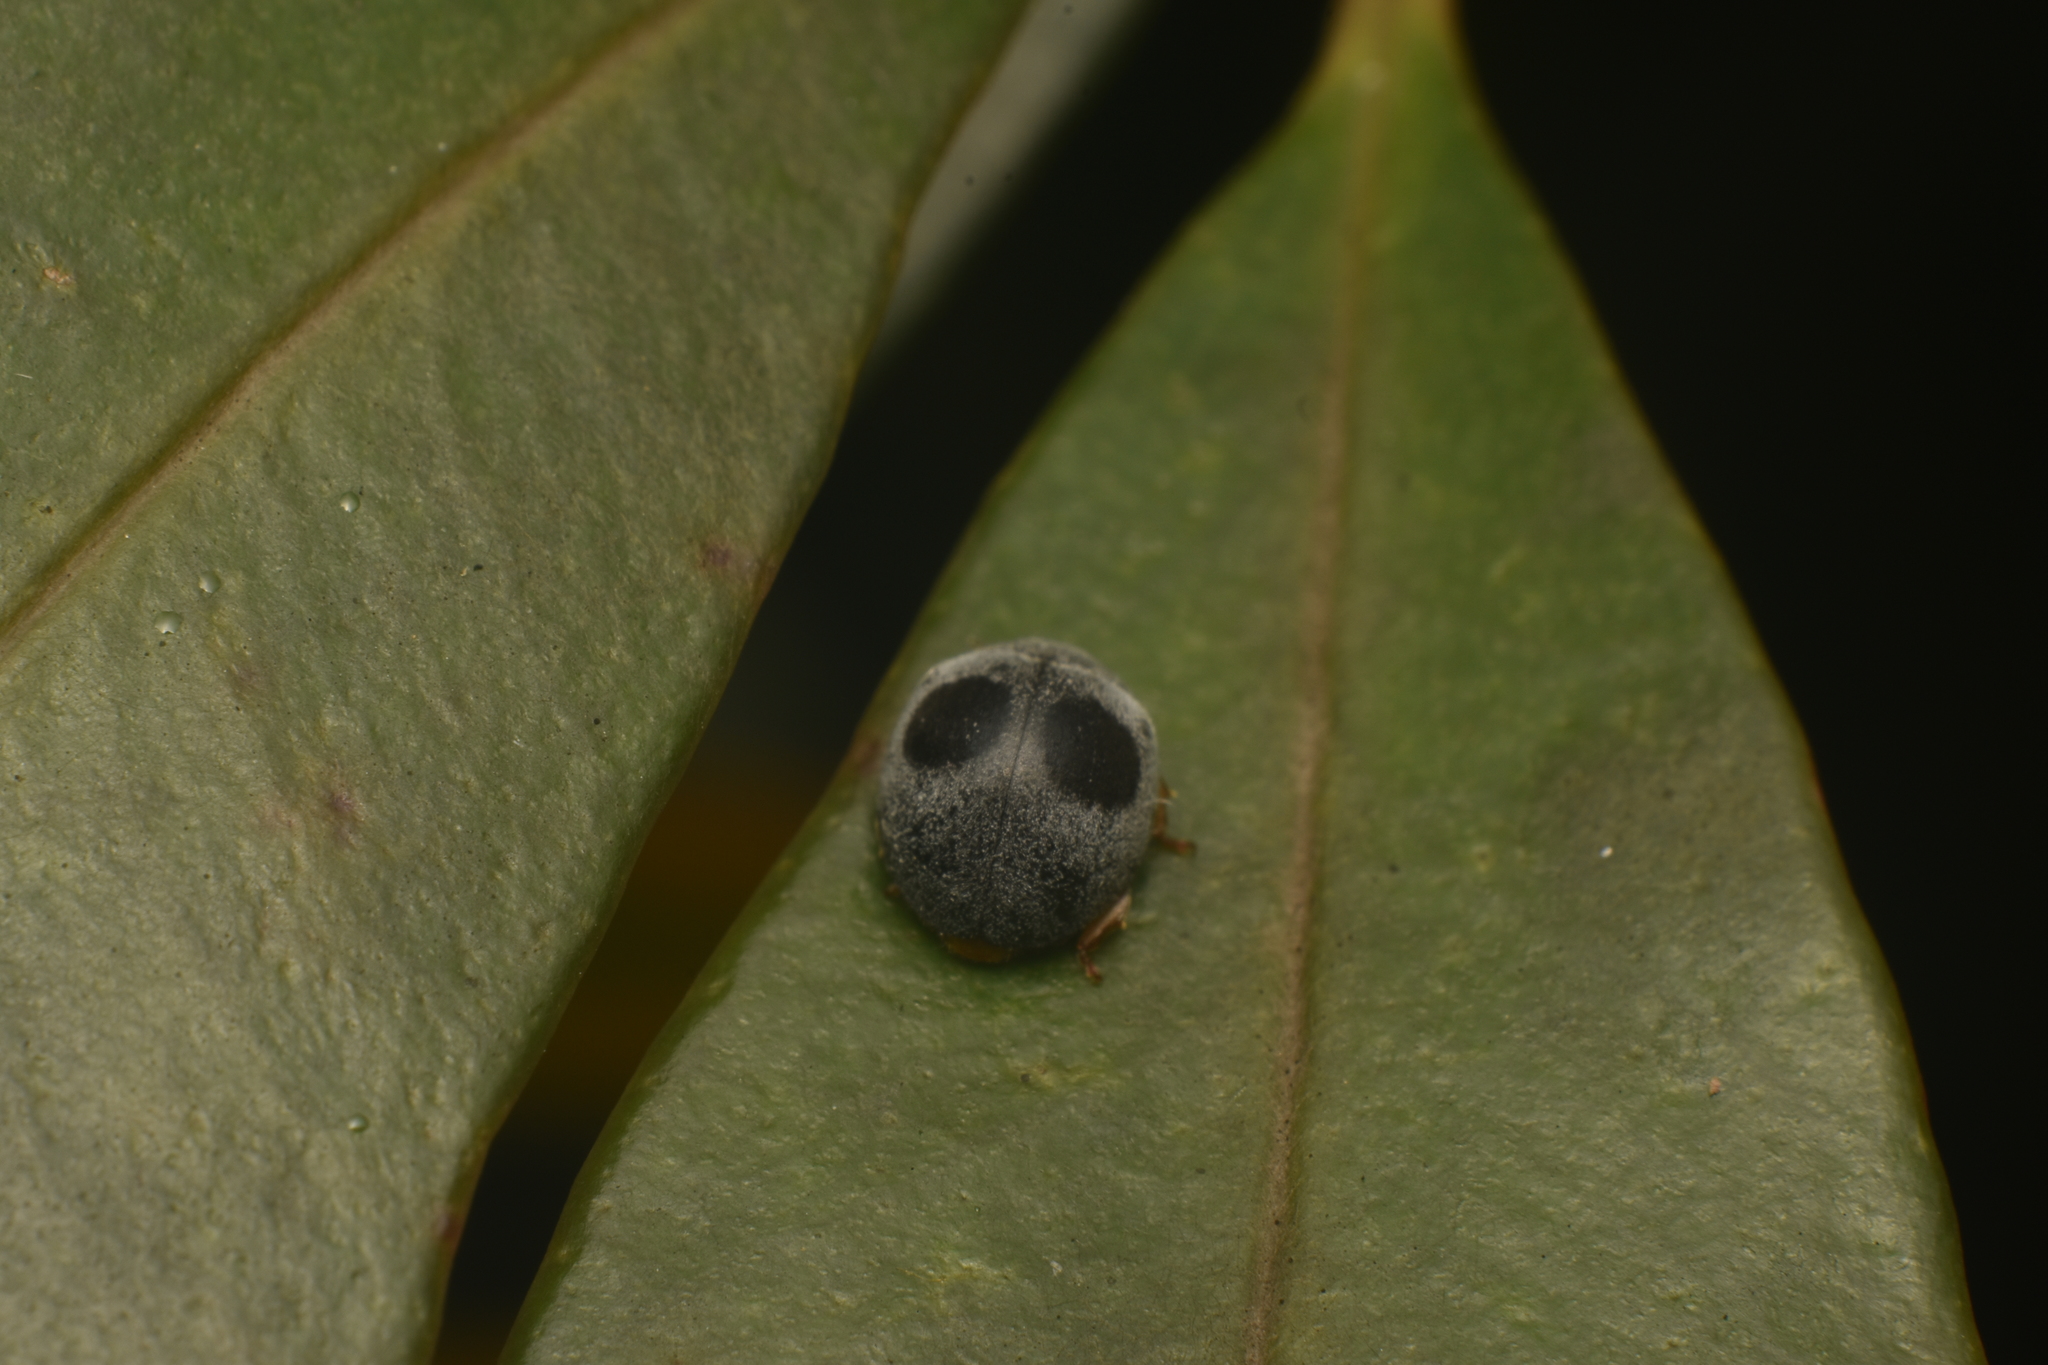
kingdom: Animalia
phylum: Arthropoda
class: Insecta
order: Coleoptera
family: Coccinellidae
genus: Azya
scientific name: Azya orbigera
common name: Ladybird beetle
